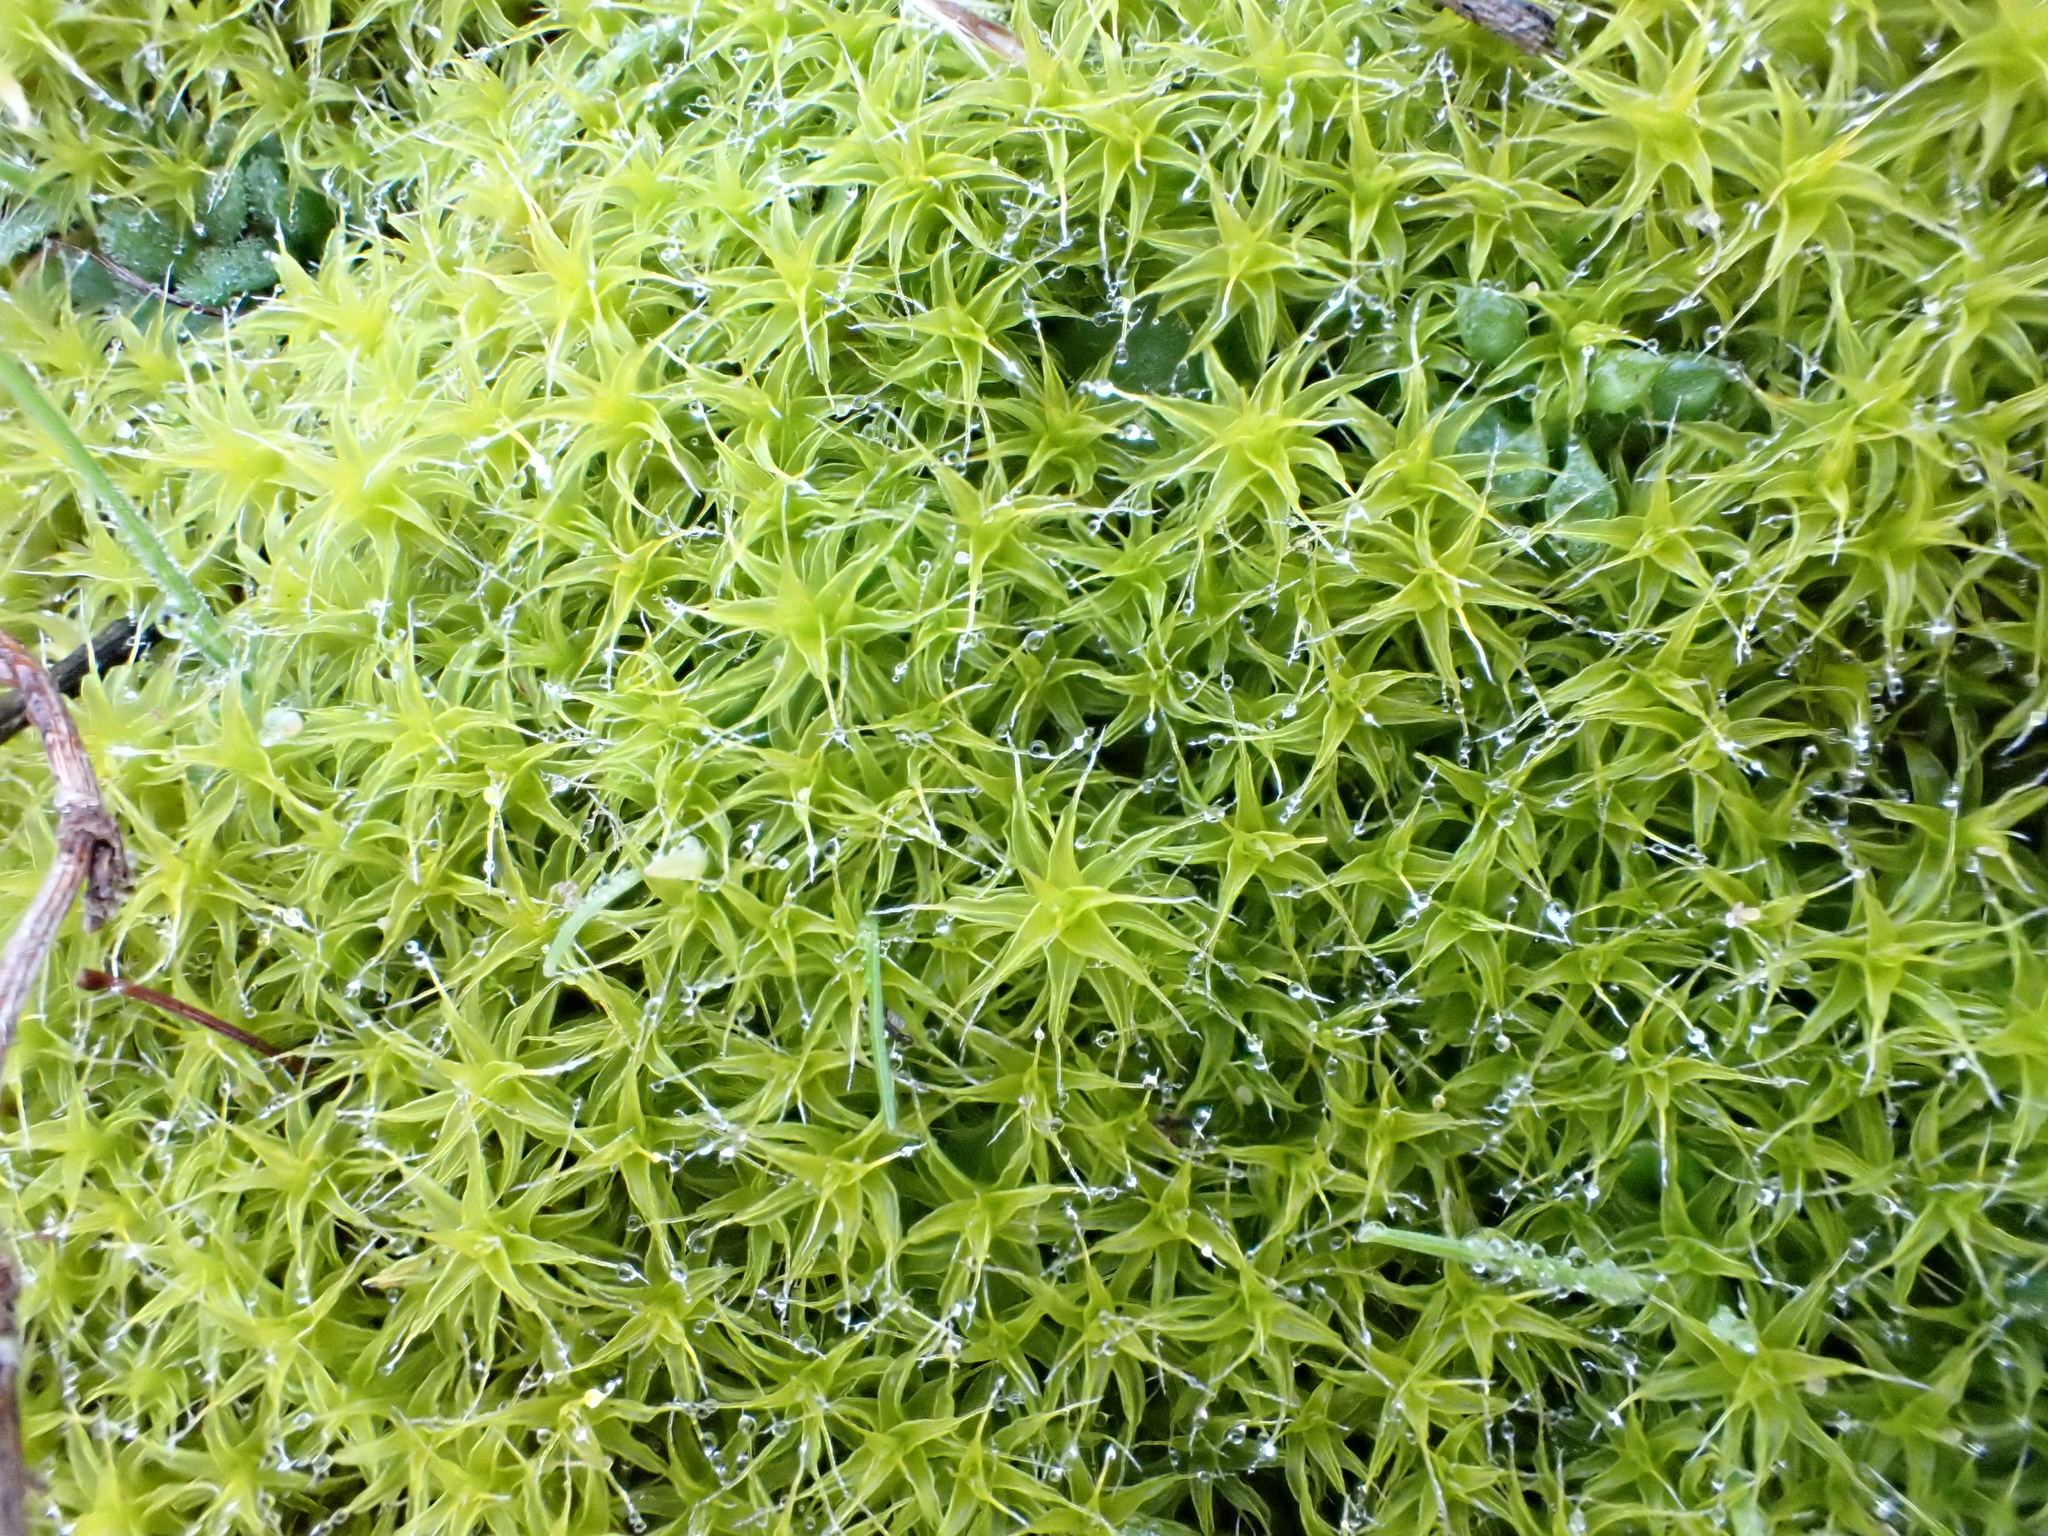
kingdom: Plantae
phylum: Bryophyta
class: Bryopsida
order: Pottiales
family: Pottiaceae
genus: Syntrichia
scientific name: Syntrichia ruralis
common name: Sidewalk screw moss
